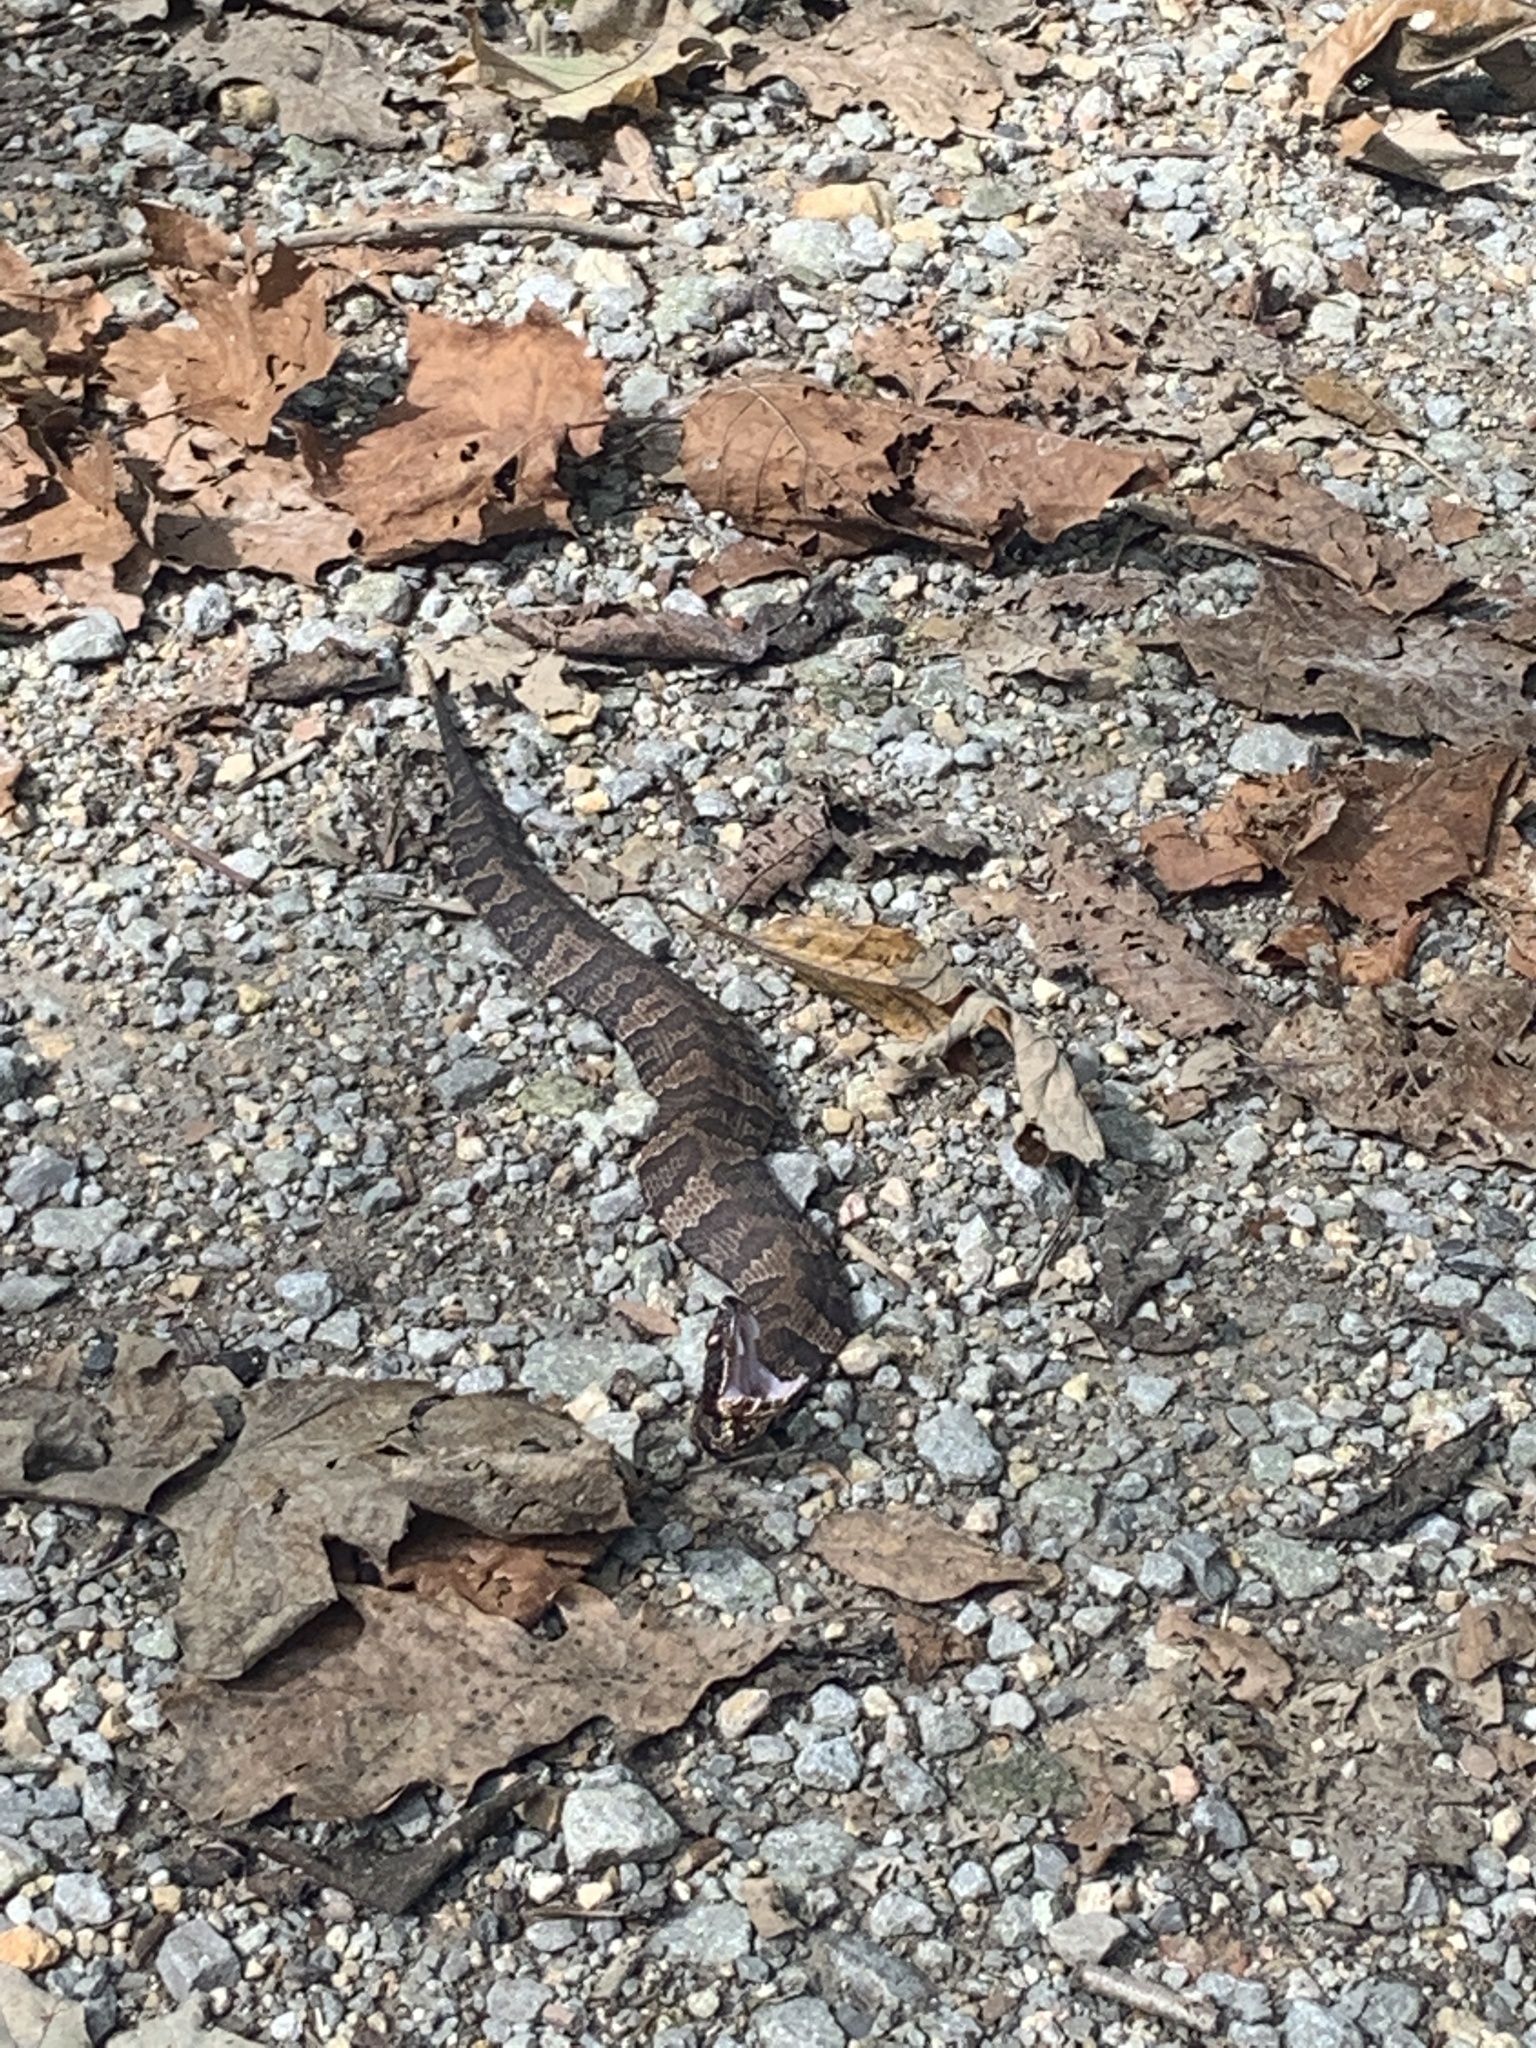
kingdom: Animalia
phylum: Chordata
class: Squamata
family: Viperidae
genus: Agkistrodon
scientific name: Agkistrodon piscivorus
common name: Cottonmouth
